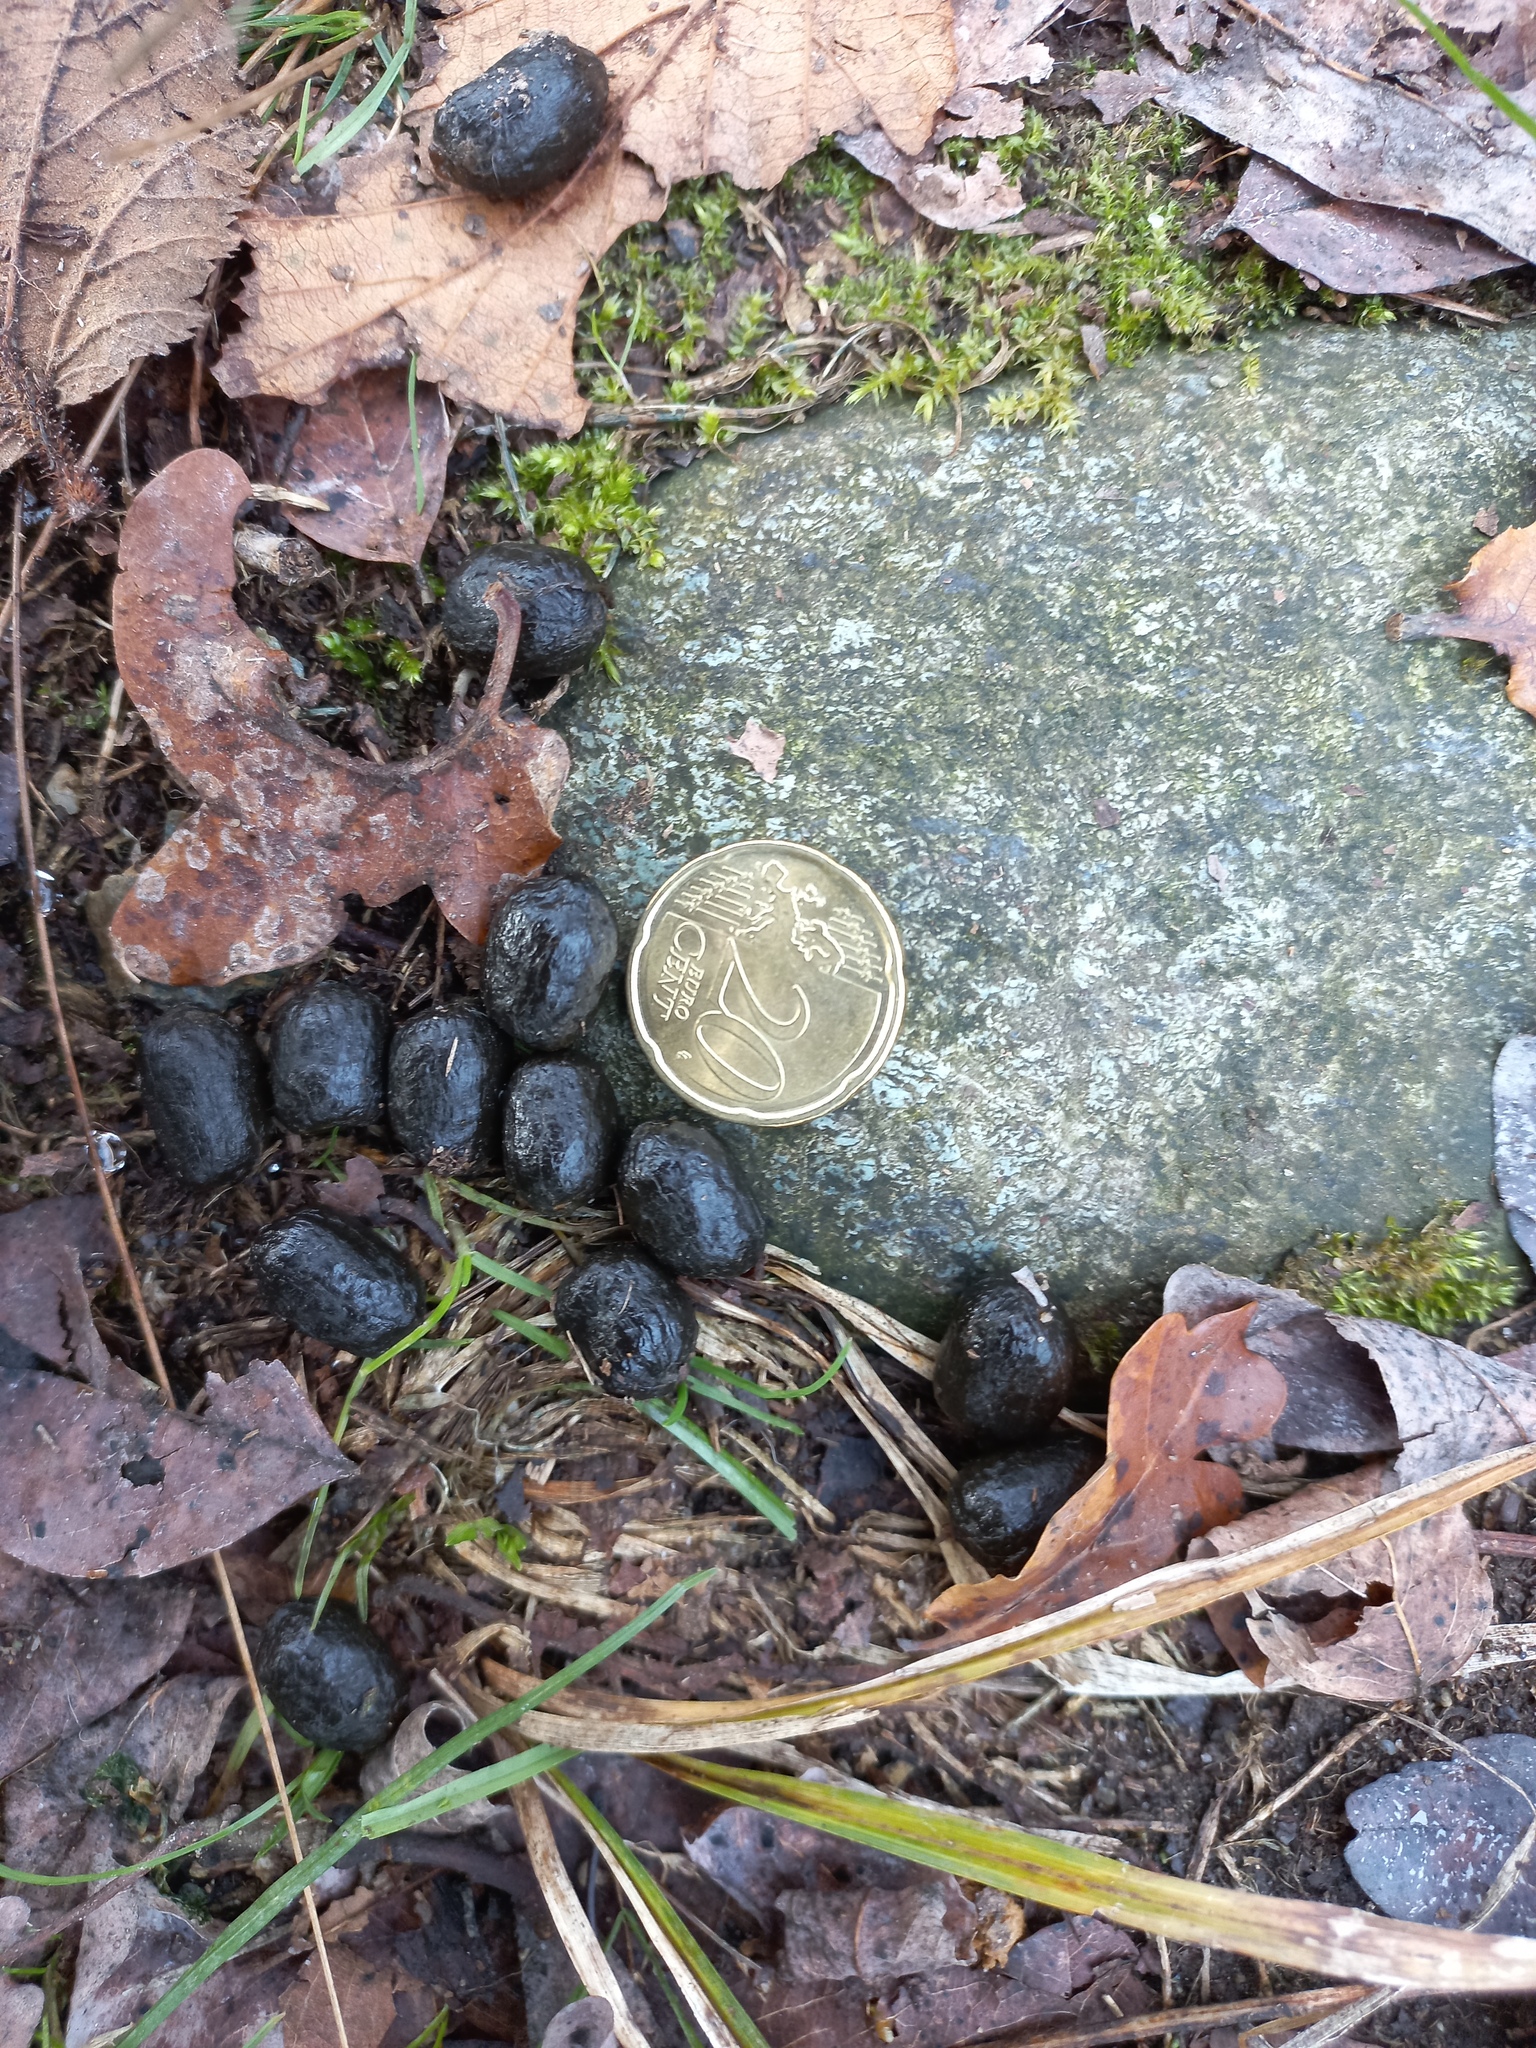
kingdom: Animalia
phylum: Chordata
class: Mammalia
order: Artiodactyla
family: Cervidae
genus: Cervus
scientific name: Cervus elaphus
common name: Red deer
